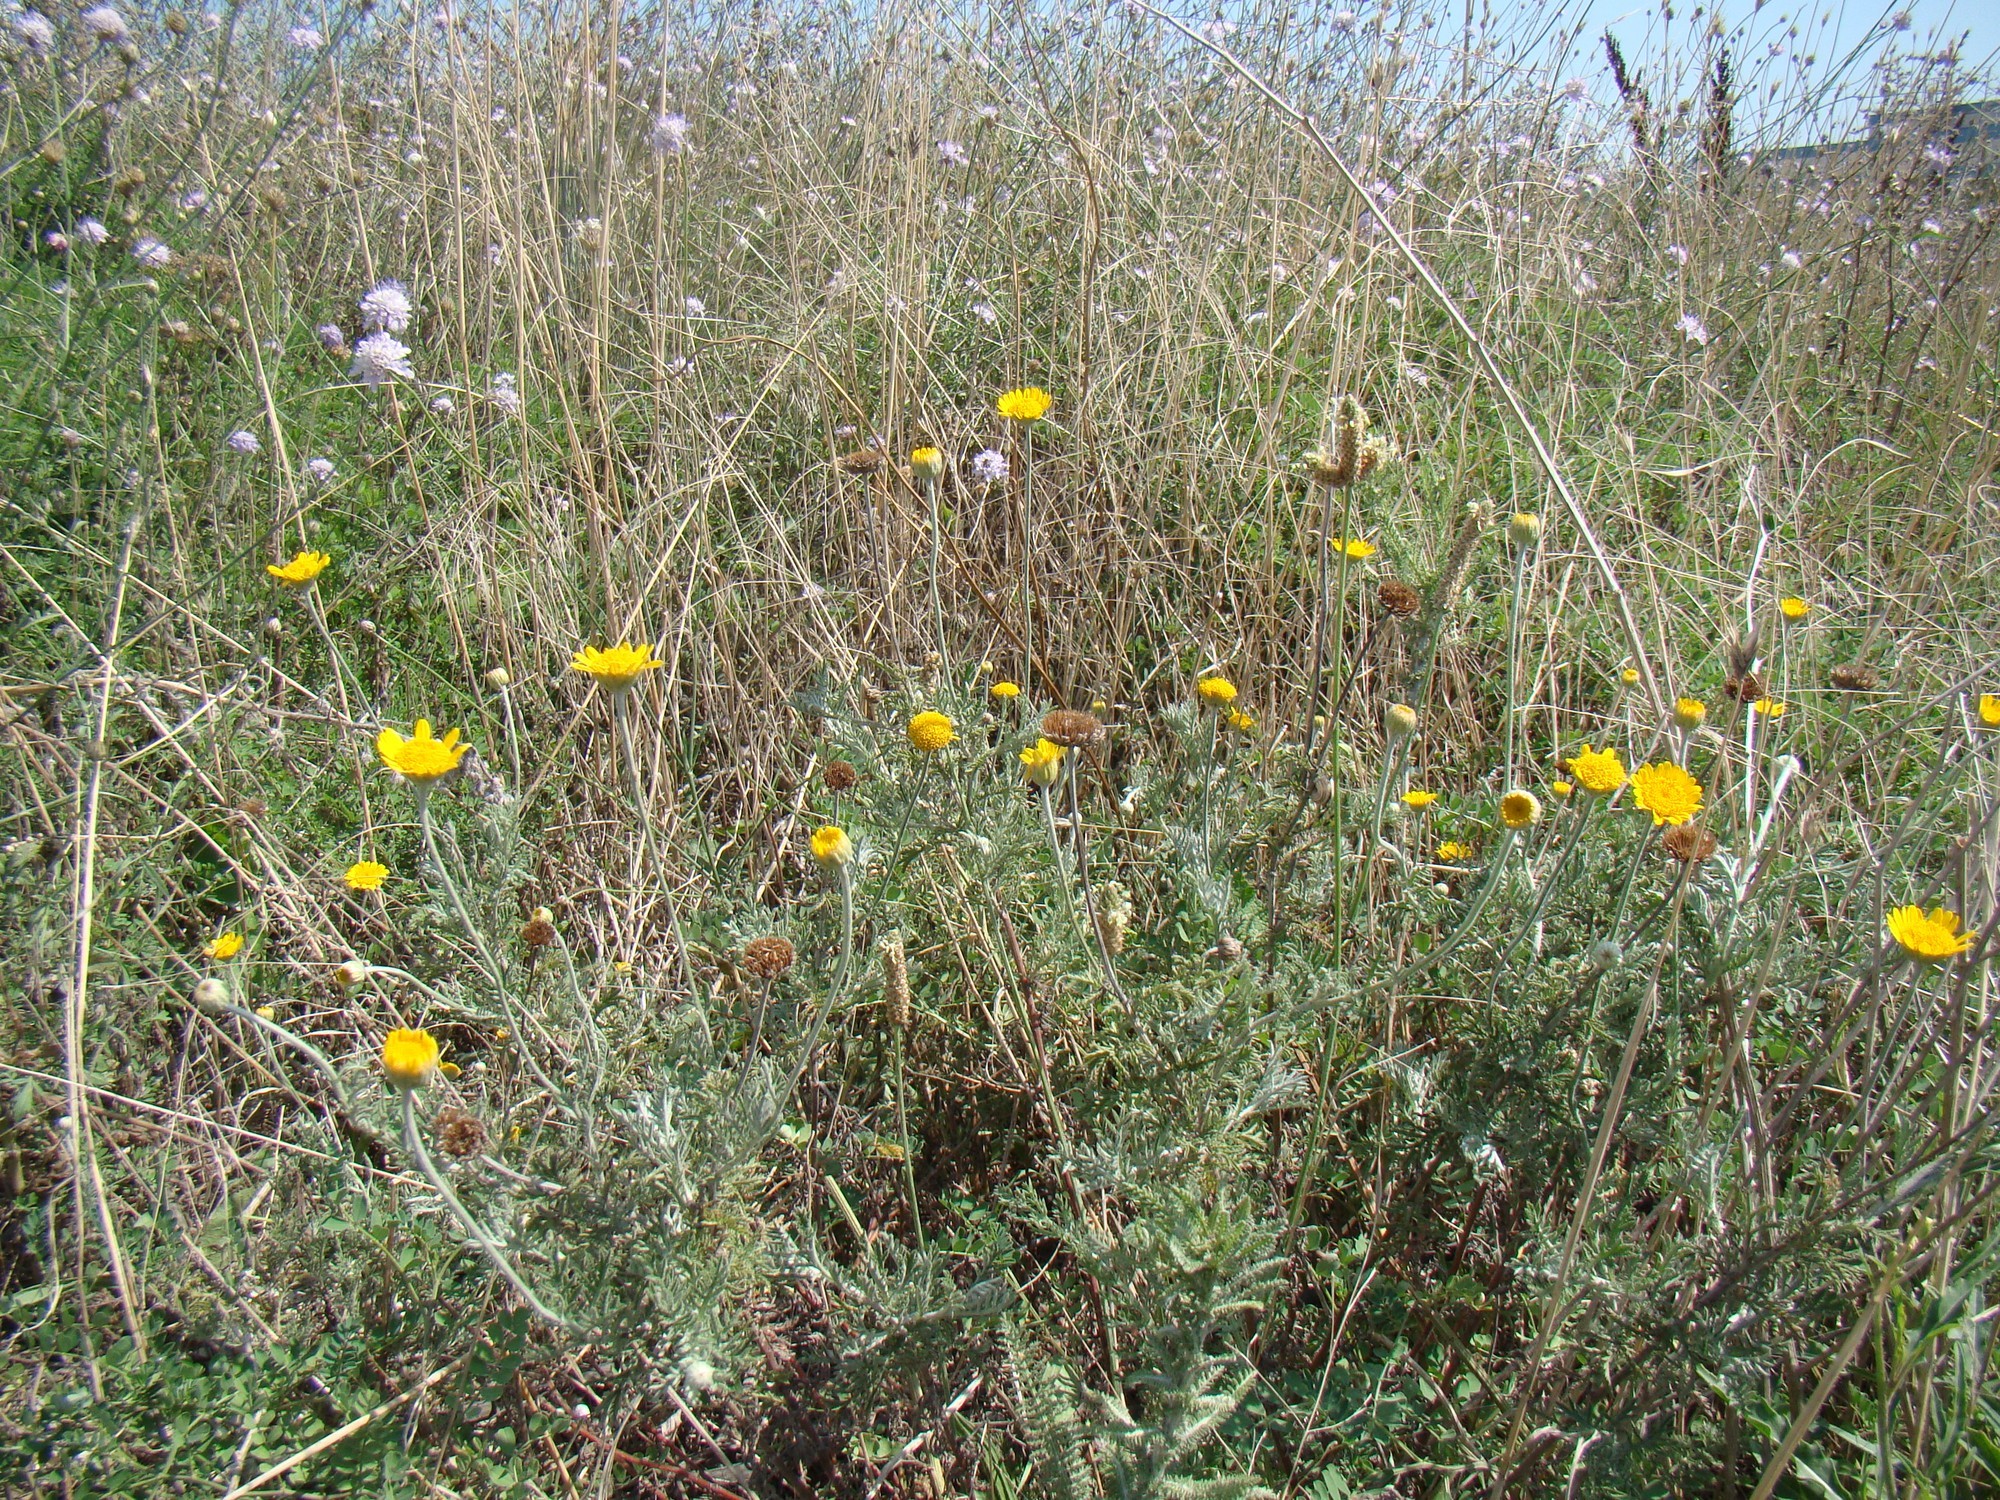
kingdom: Plantae
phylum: Tracheophyta
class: Magnoliopsida
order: Asterales
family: Asteraceae
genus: Cota
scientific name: Cota tinctoria
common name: Golden chamomile
